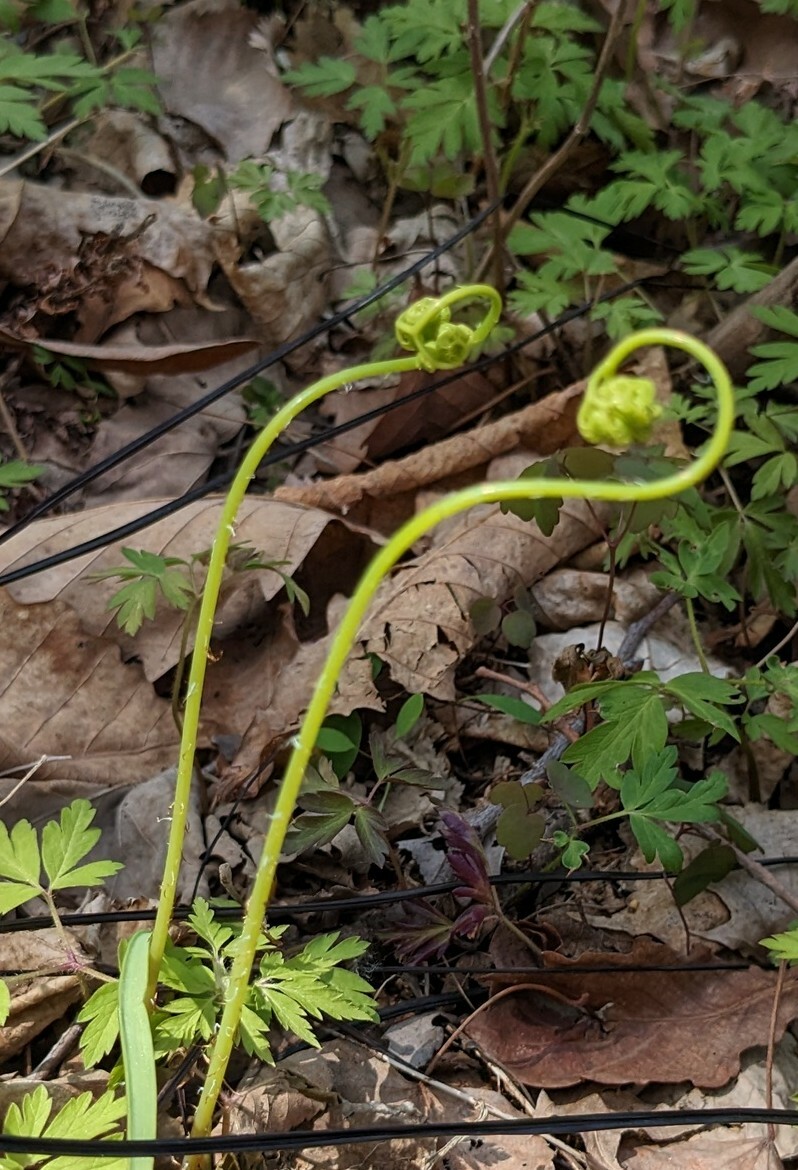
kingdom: Plantae
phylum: Tracheophyta
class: Polypodiopsida
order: Polypodiales
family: Pteridaceae
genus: Adiantum
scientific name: Adiantum pedatum
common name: Five-finger fern
